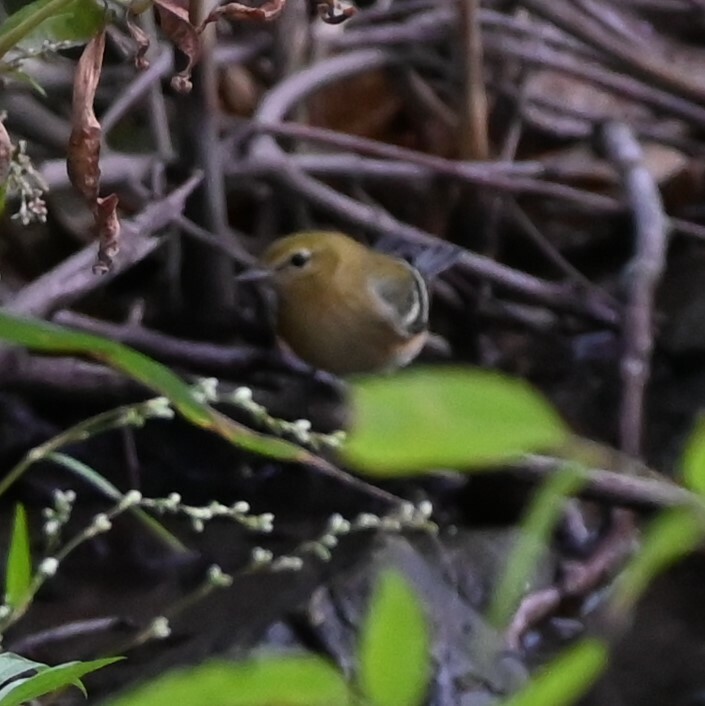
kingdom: Animalia
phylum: Chordata
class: Aves
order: Passeriformes
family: Parulidae
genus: Setophaga
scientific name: Setophaga castanea
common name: Bay-breasted warbler
